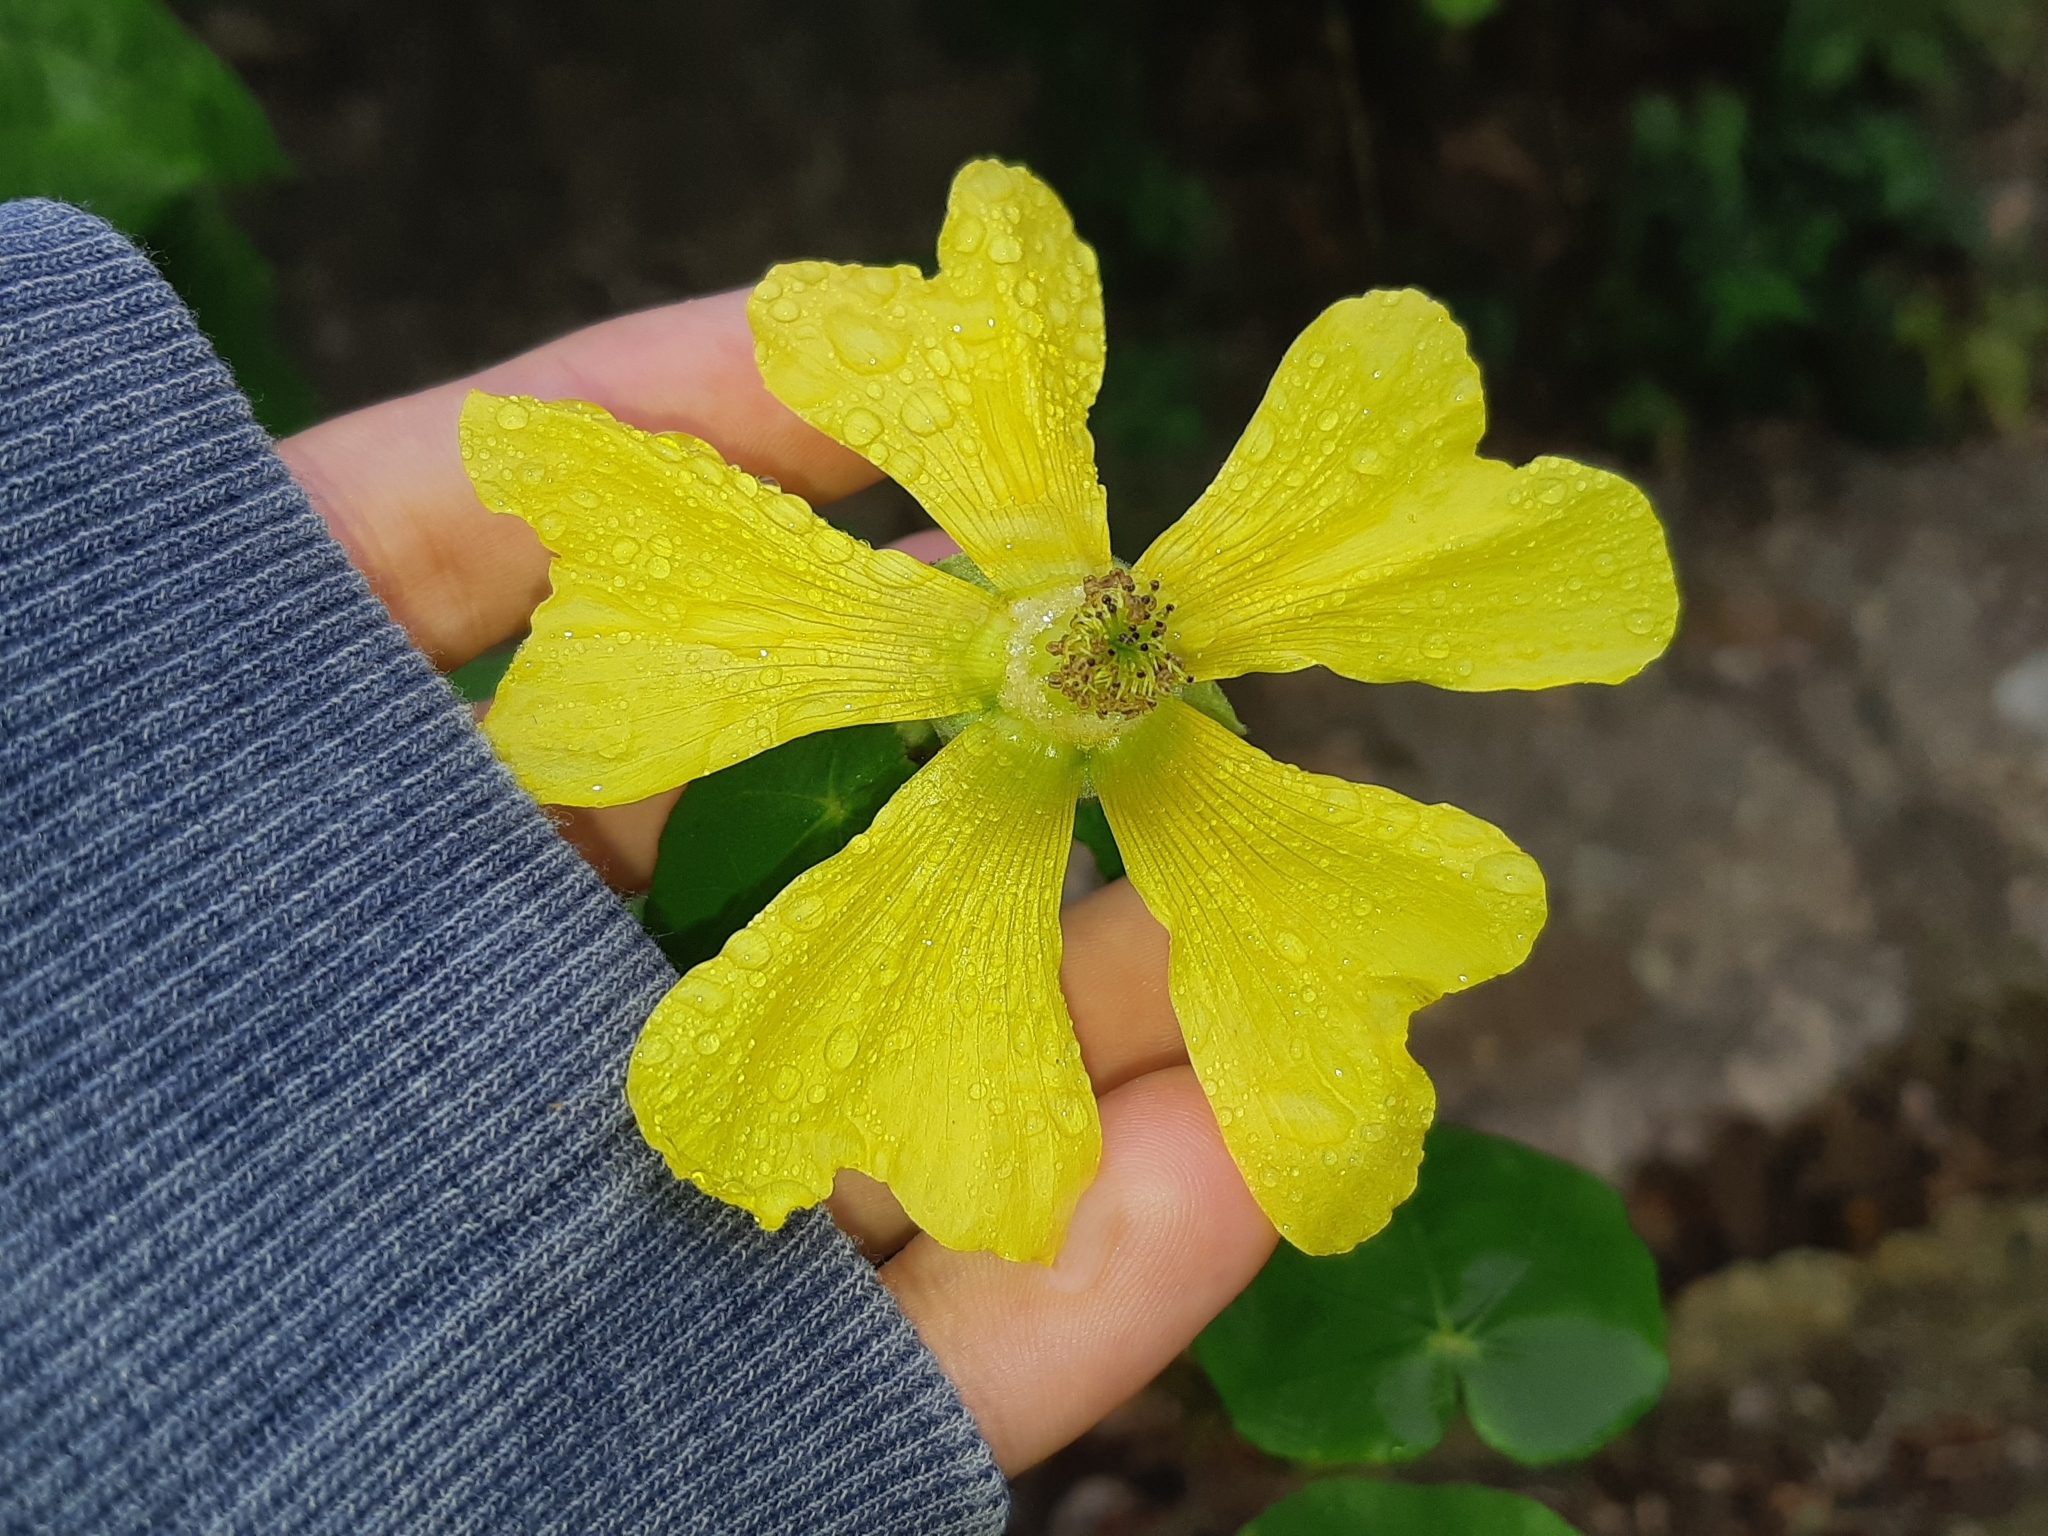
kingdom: Plantae
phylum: Tracheophyta
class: Magnoliopsida
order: Malvales
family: Malvaceae
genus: Abutilon
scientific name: Abutilon pubistamineum
